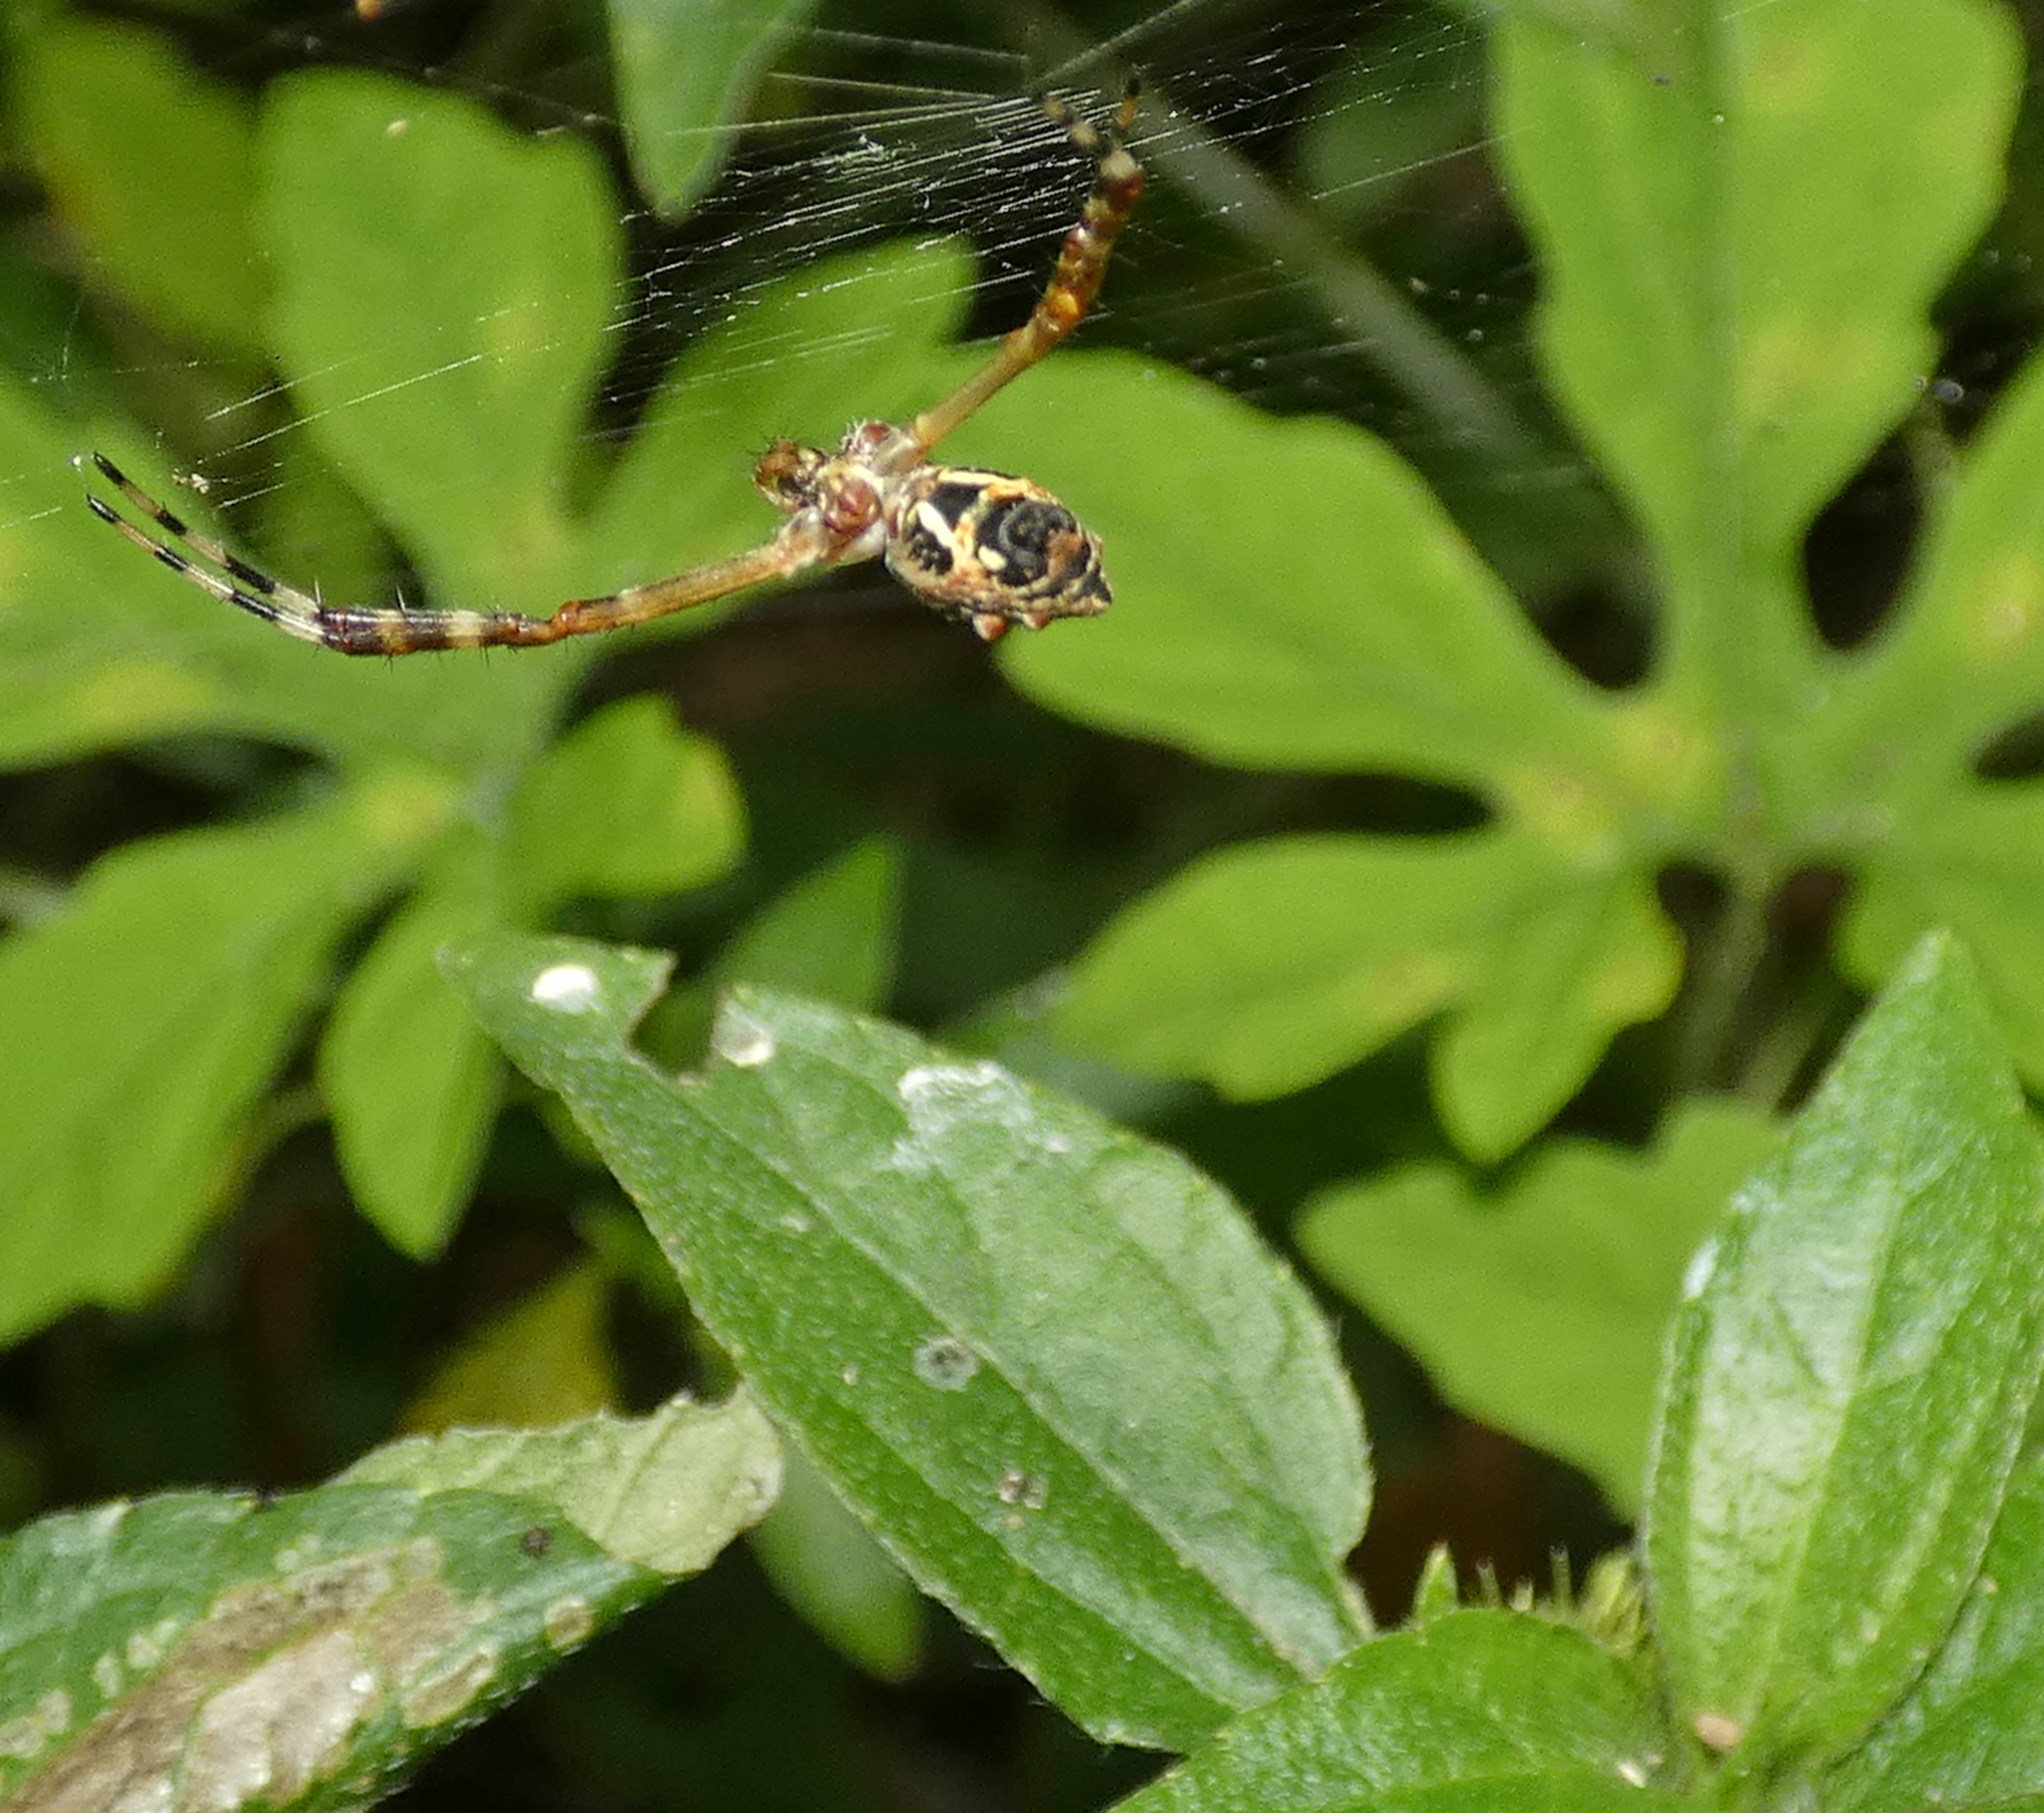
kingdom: Animalia
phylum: Arthropoda
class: Arachnida
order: Araneae
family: Araneidae
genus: Argiope
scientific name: Argiope argentata
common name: Orb weavers
